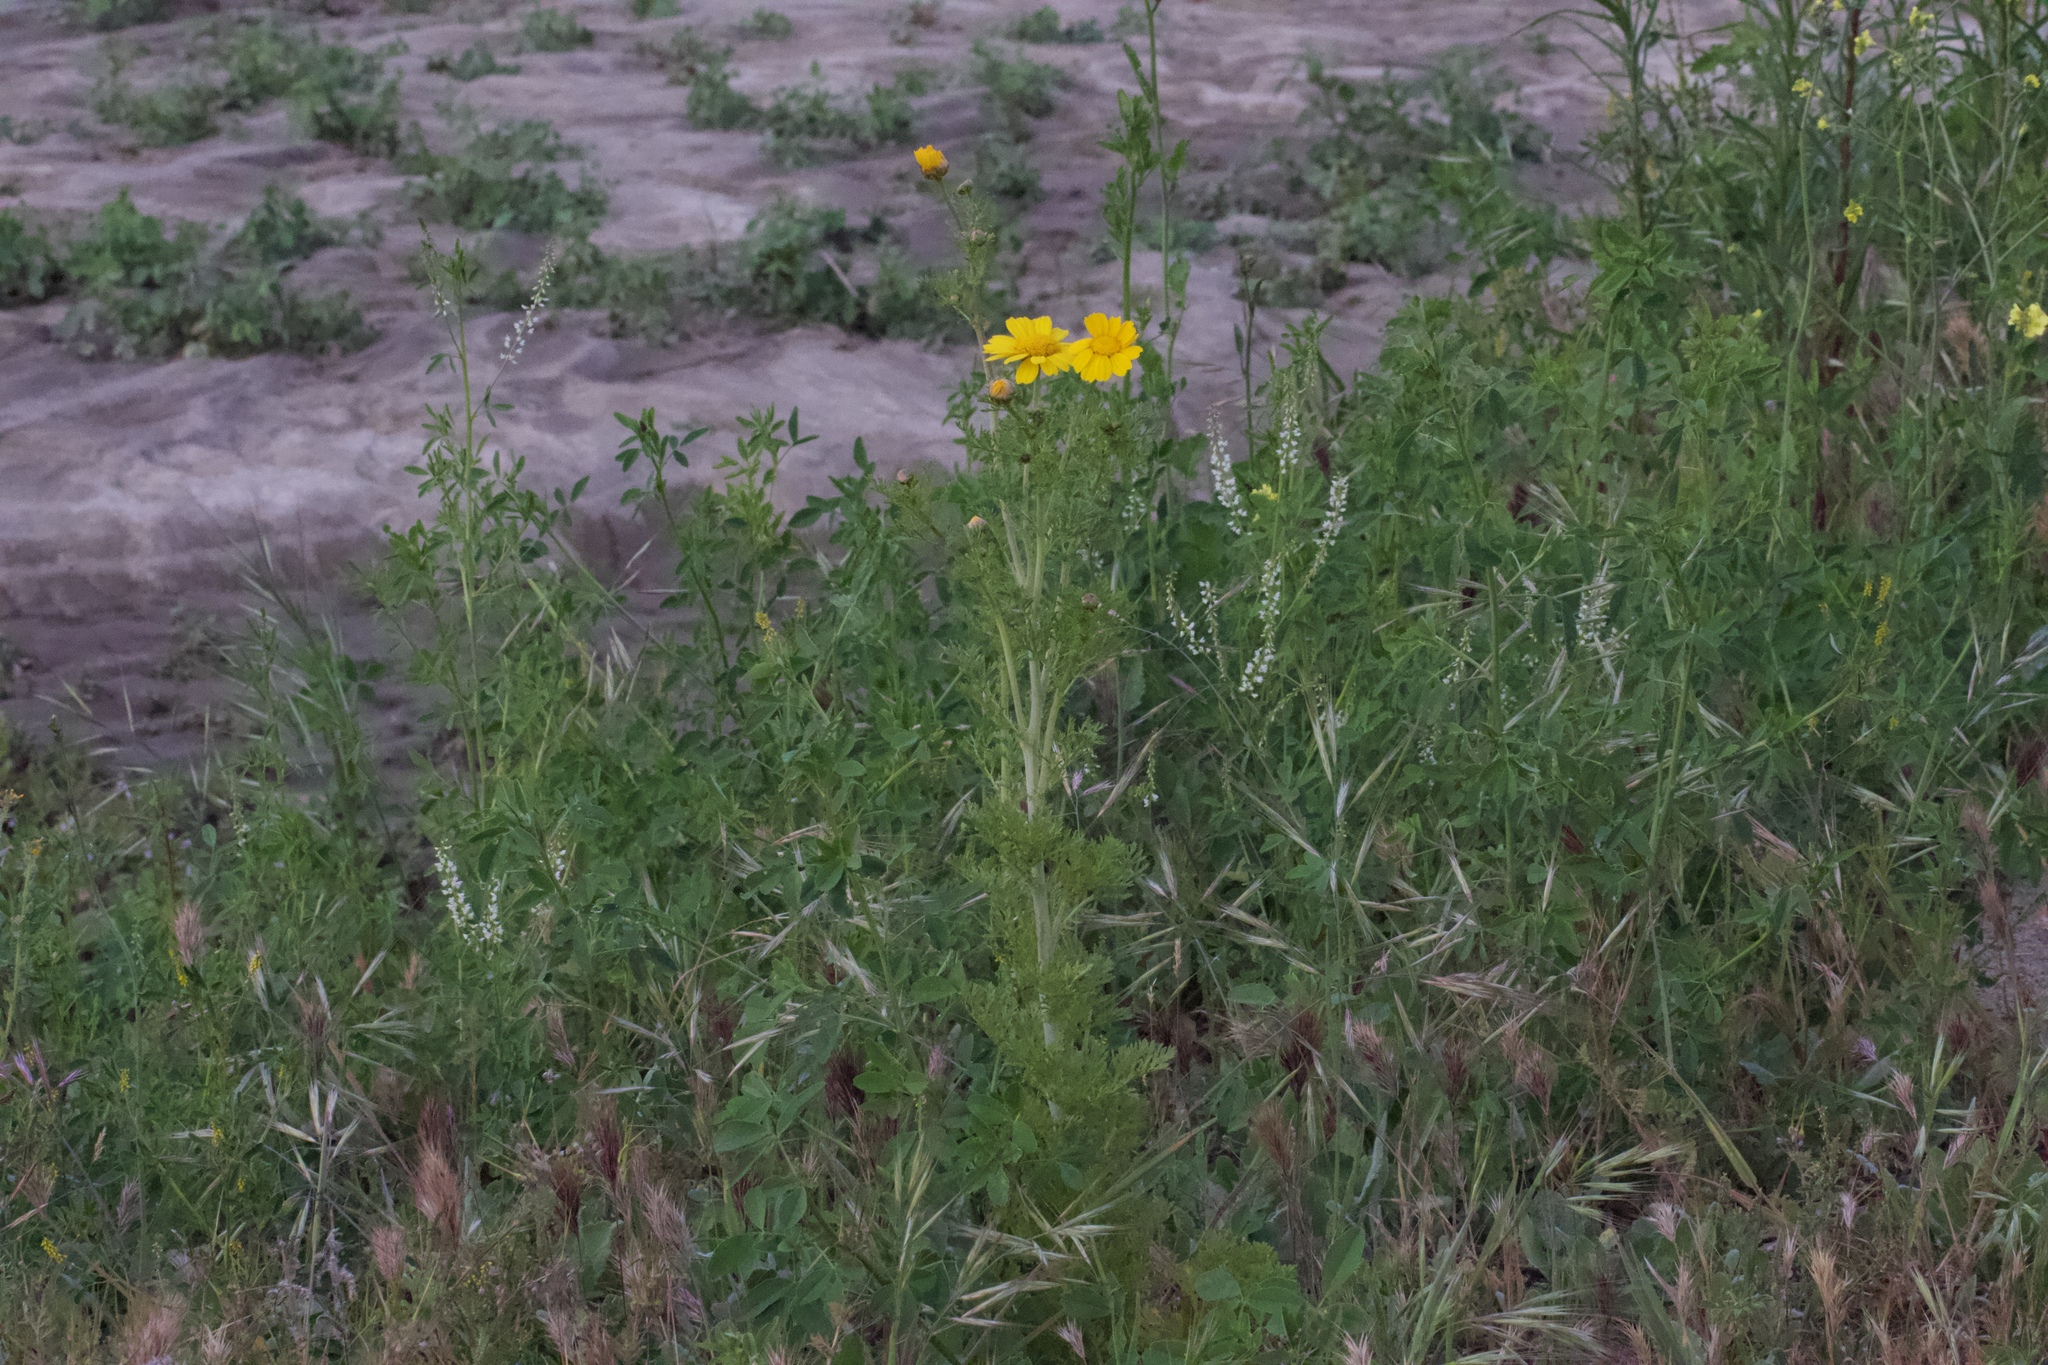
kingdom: Plantae
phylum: Tracheophyta
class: Magnoliopsida
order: Asterales
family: Asteraceae
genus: Glebionis
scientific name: Glebionis coronaria
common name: Crowndaisy
